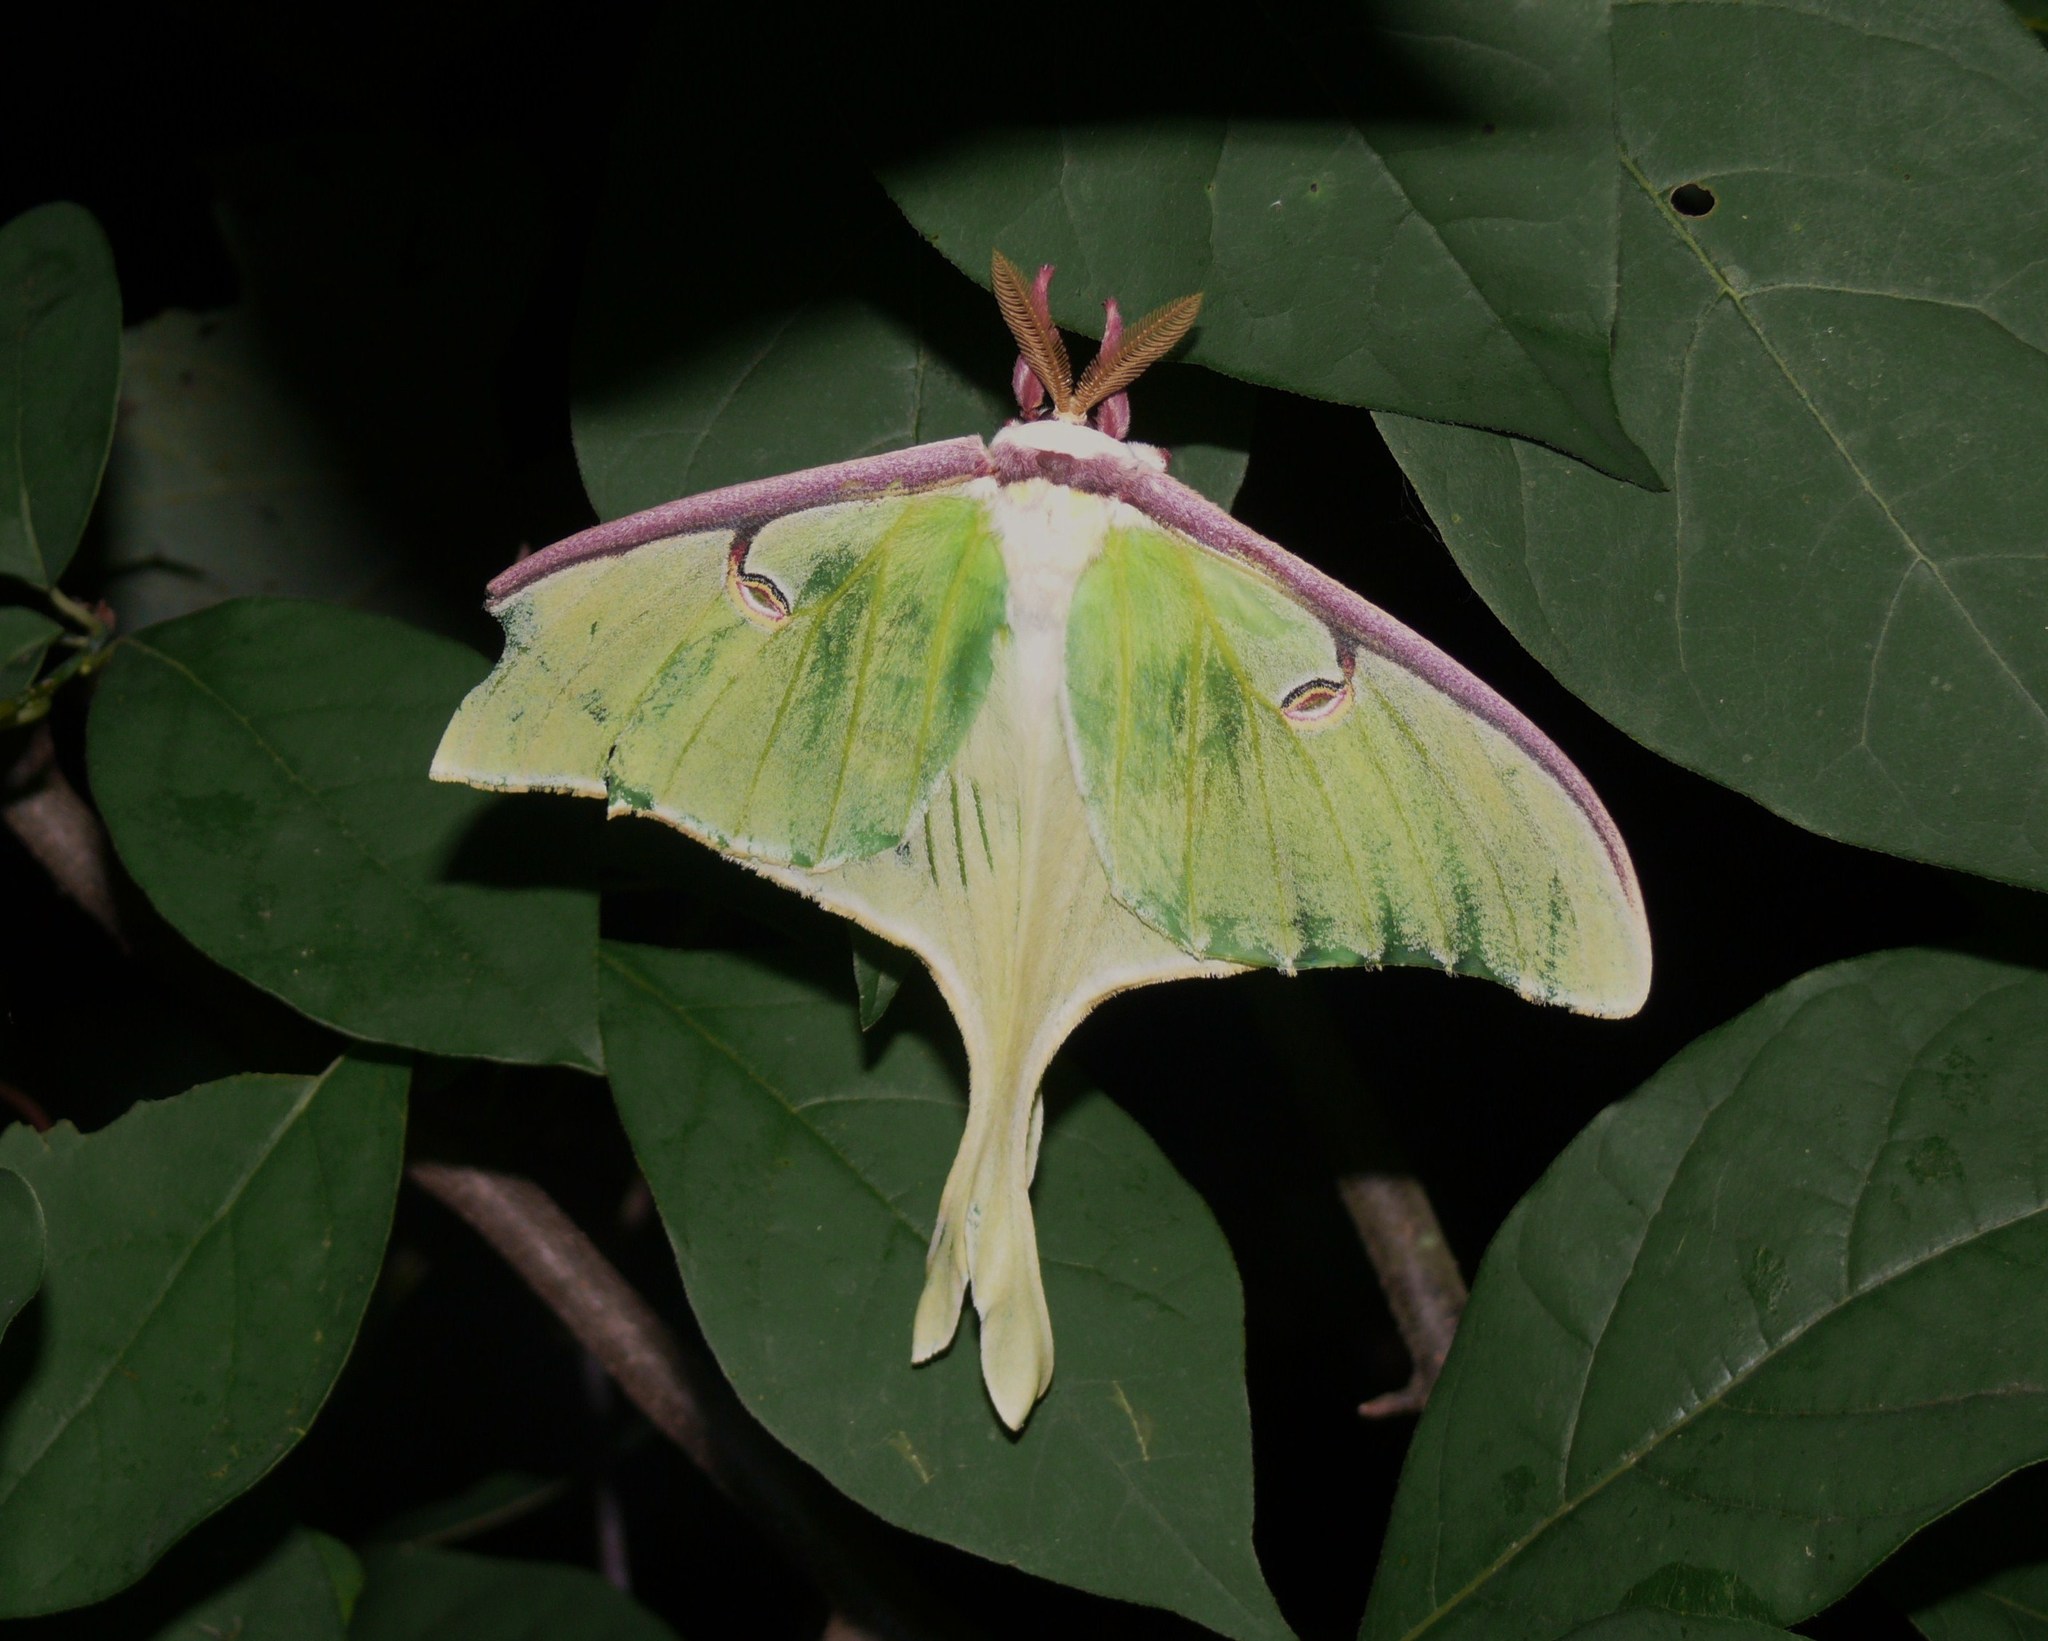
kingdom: Animalia
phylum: Arthropoda
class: Insecta
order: Lepidoptera
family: Saturniidae
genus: Actias
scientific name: Actias luna
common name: Luna moth
